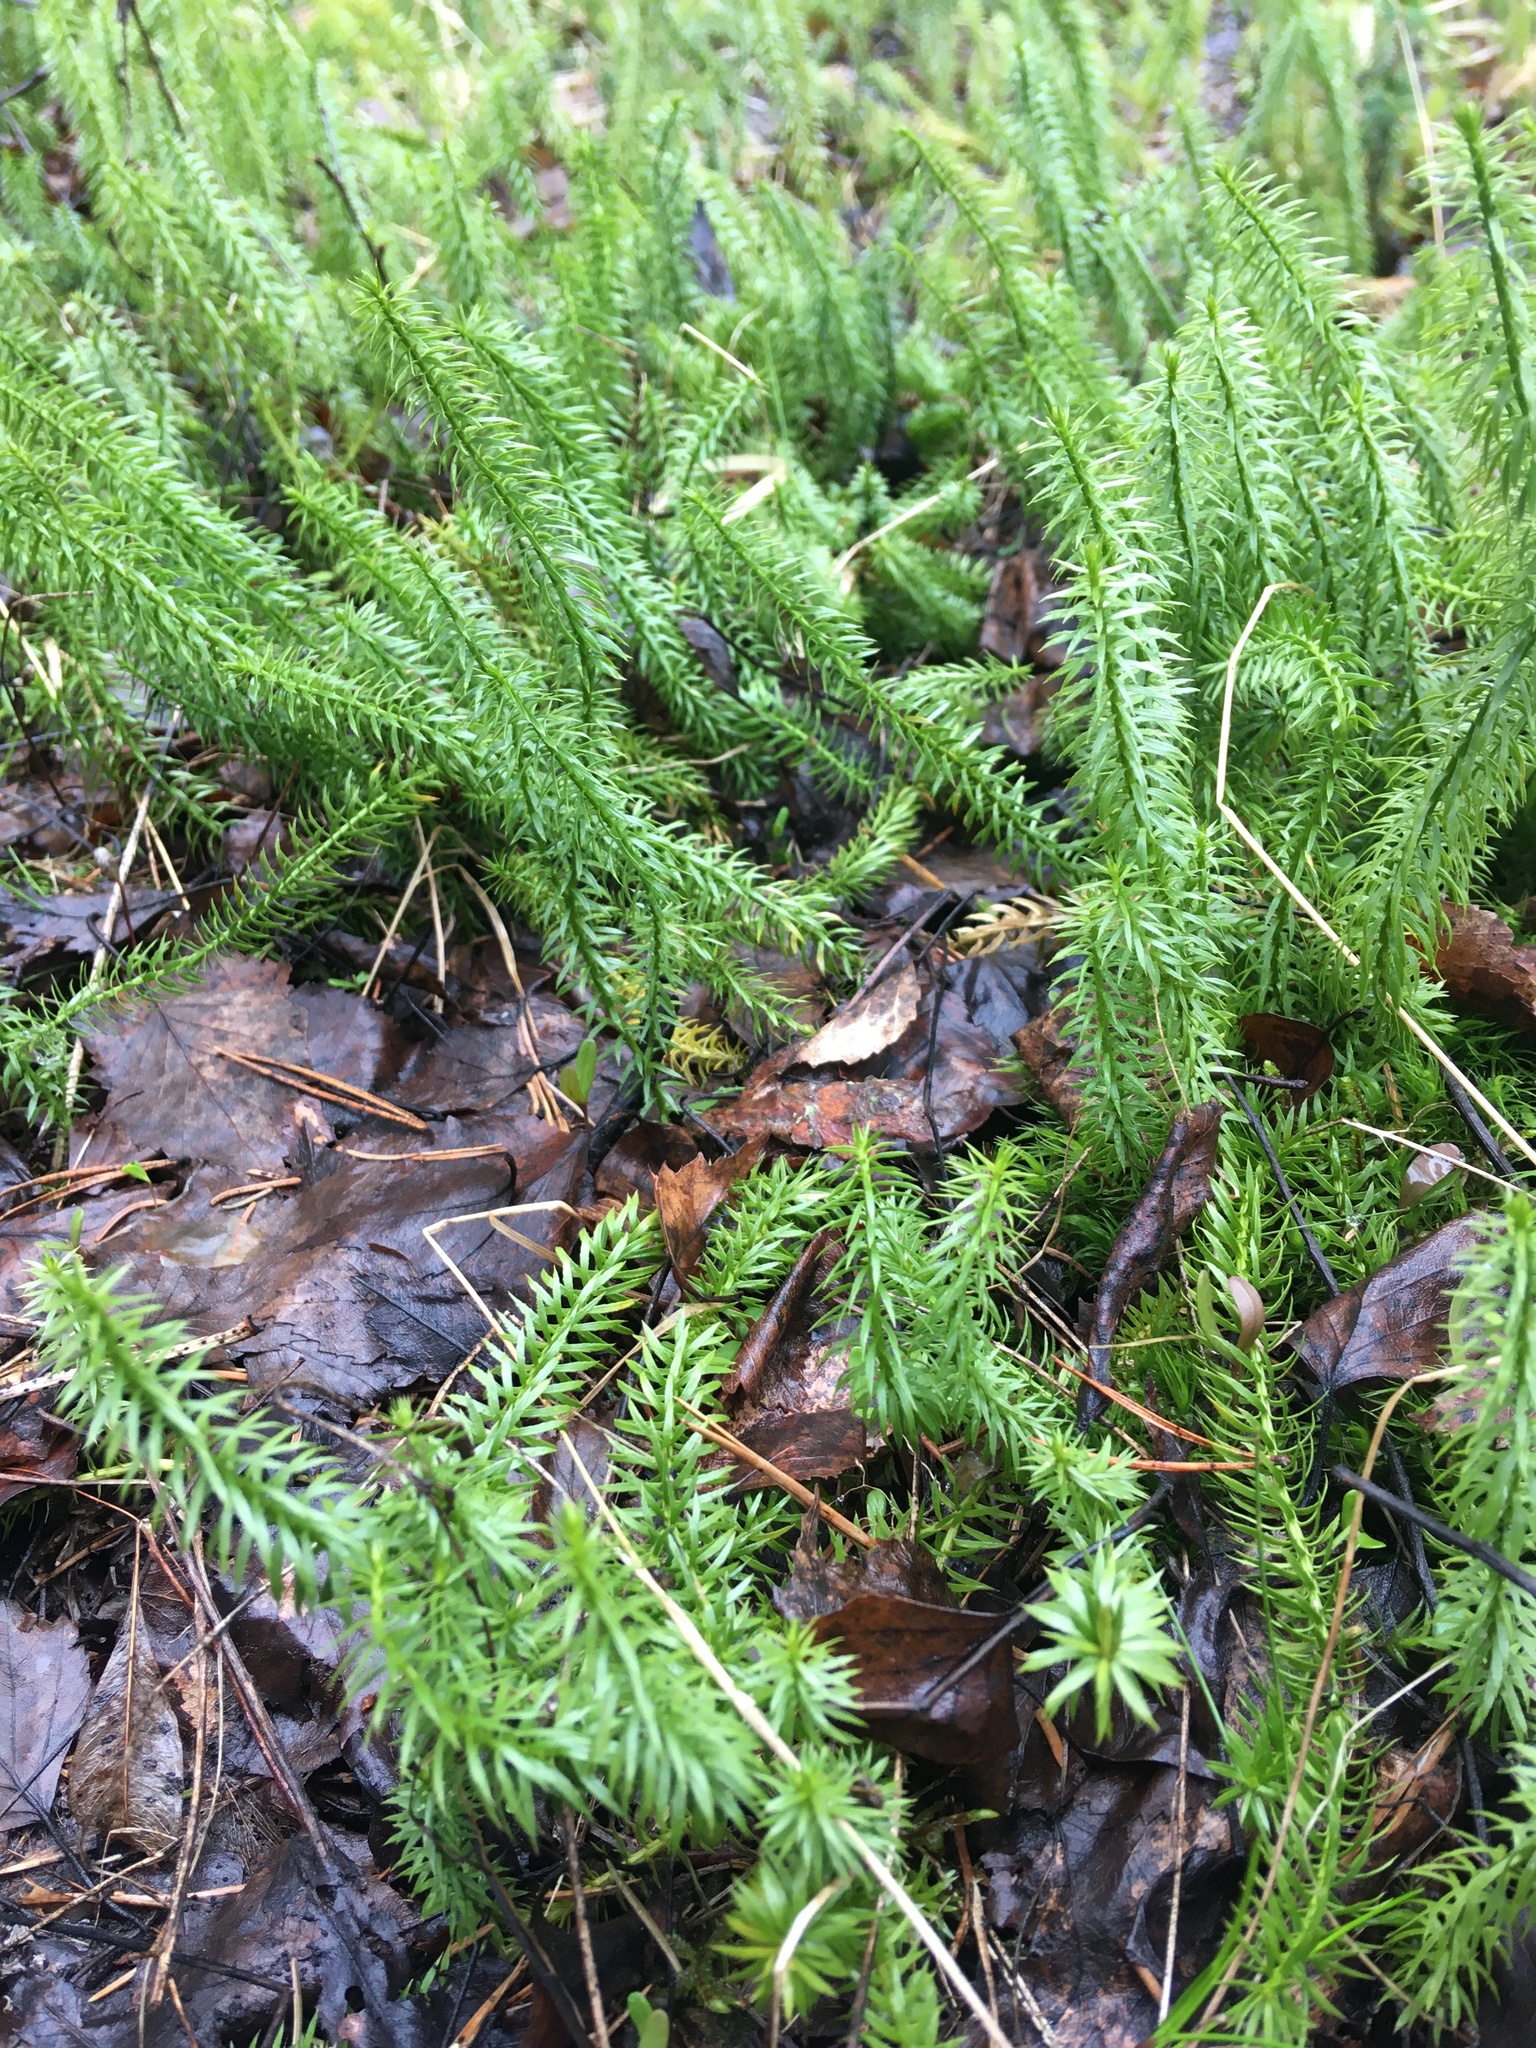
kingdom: Plantae
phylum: Tracheophyta
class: Lycopodiopsida
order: Lycopodiales
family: Lycopodiaceae
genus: Spinulum
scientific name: Spinulum annotinum
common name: Interrupted club-moss
